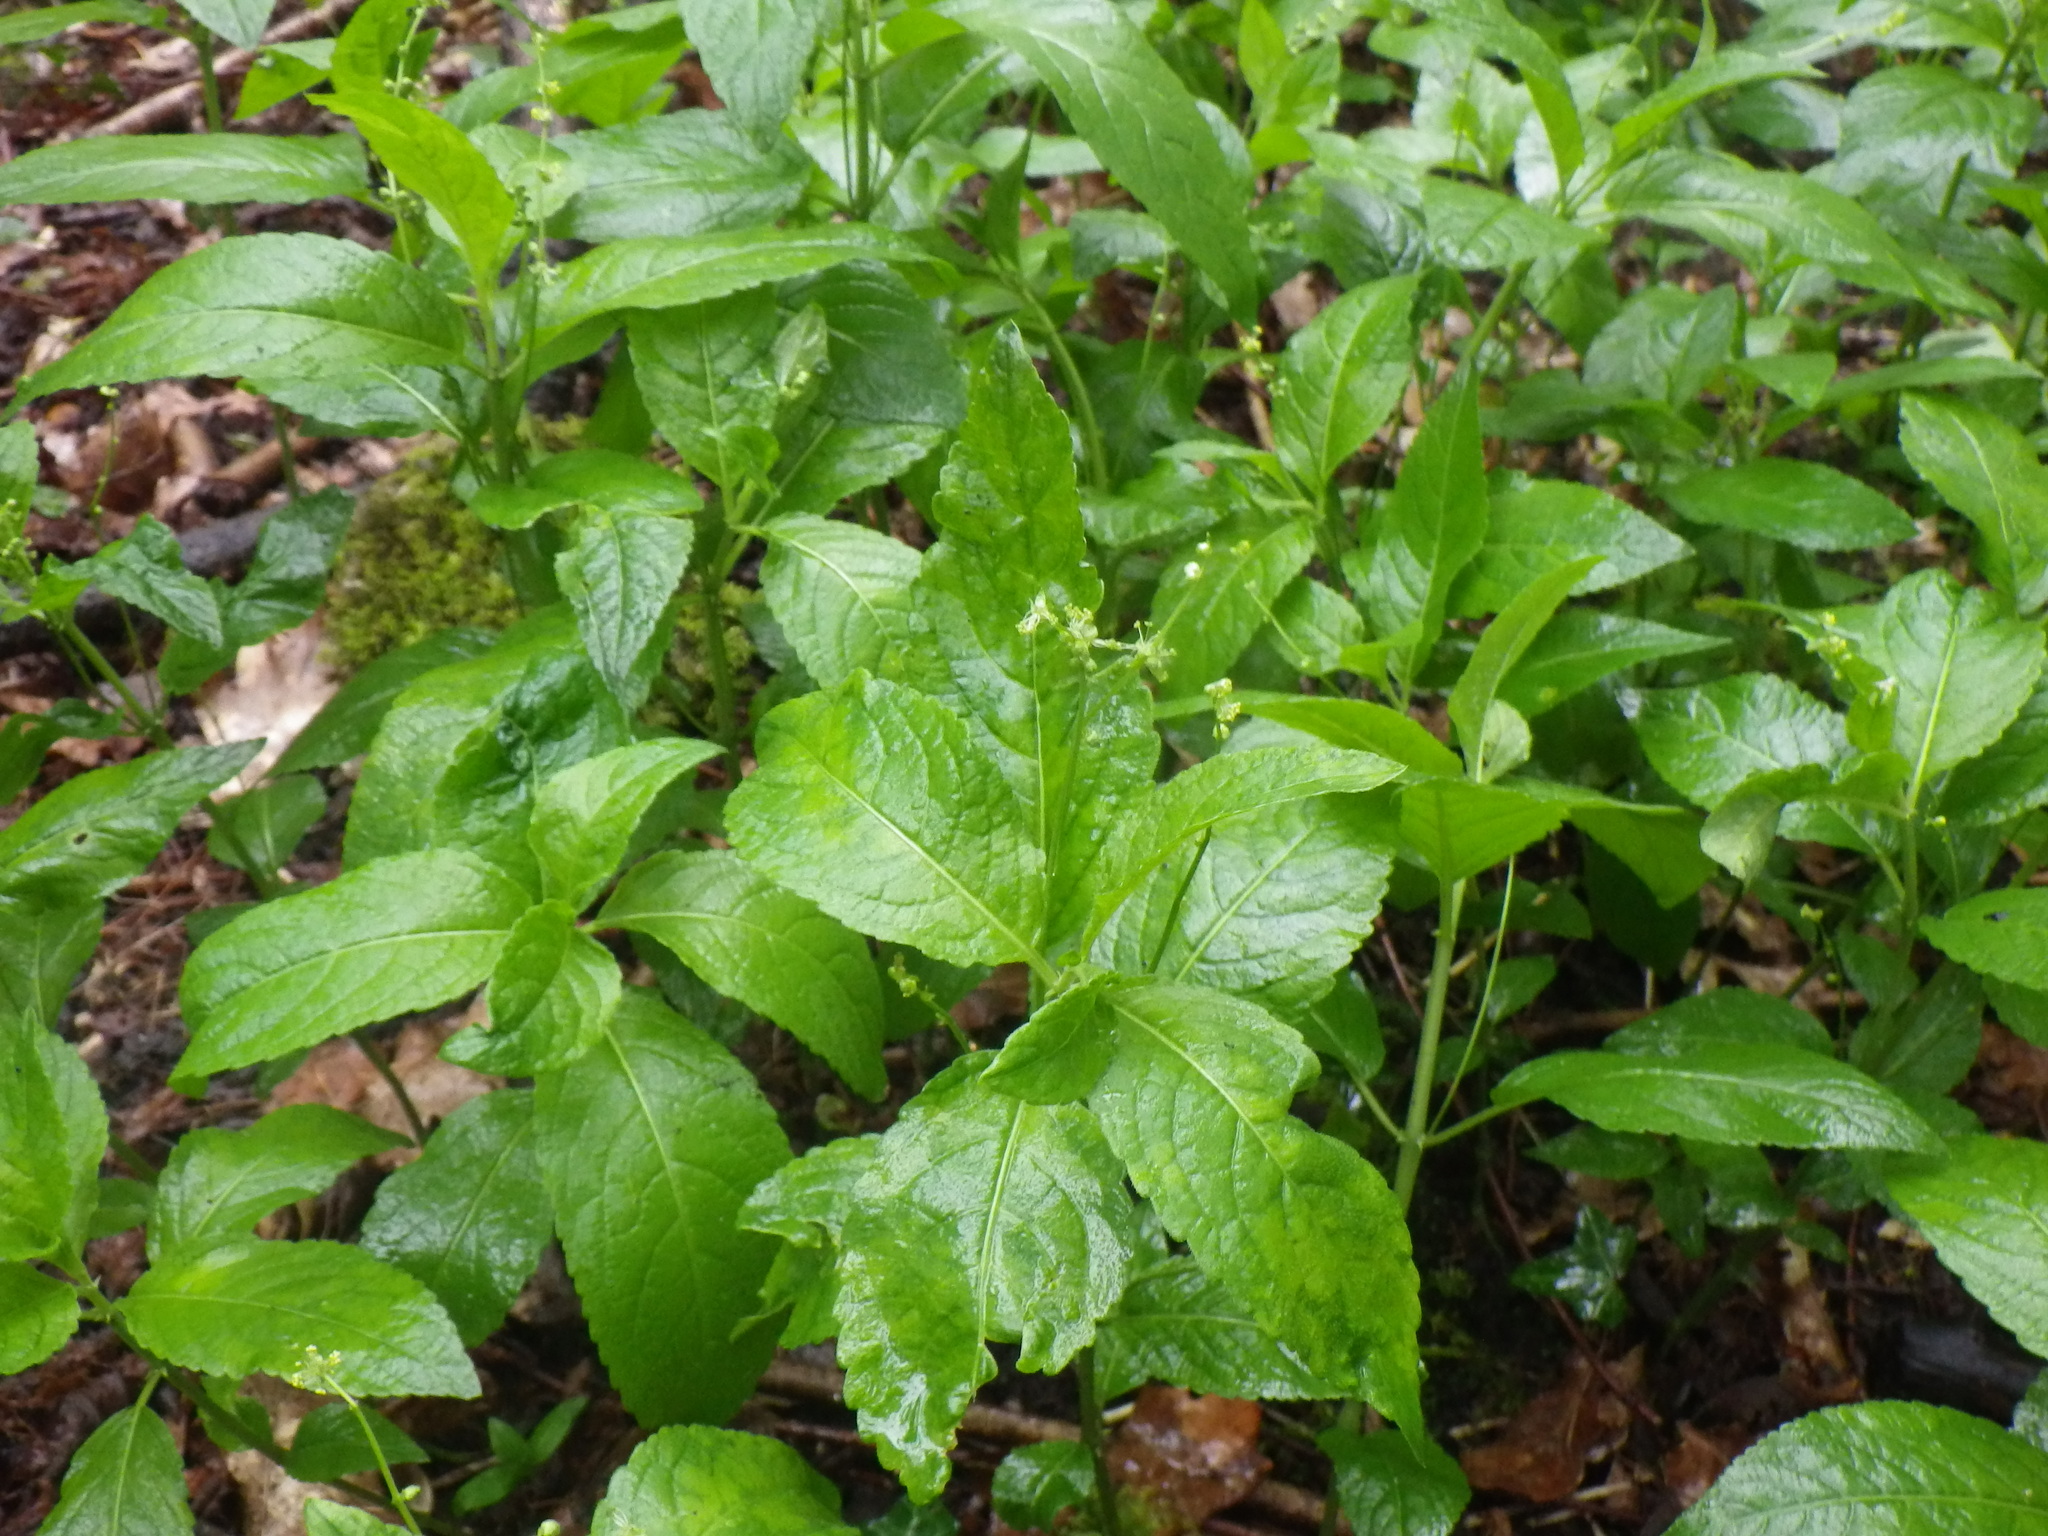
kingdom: Plantae
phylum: Tracheophyta
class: Magnoliopsida
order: Malpighiales
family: Euphorbiaceae
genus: Mercurialis
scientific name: Mercurialis perennis
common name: Dog mercury
